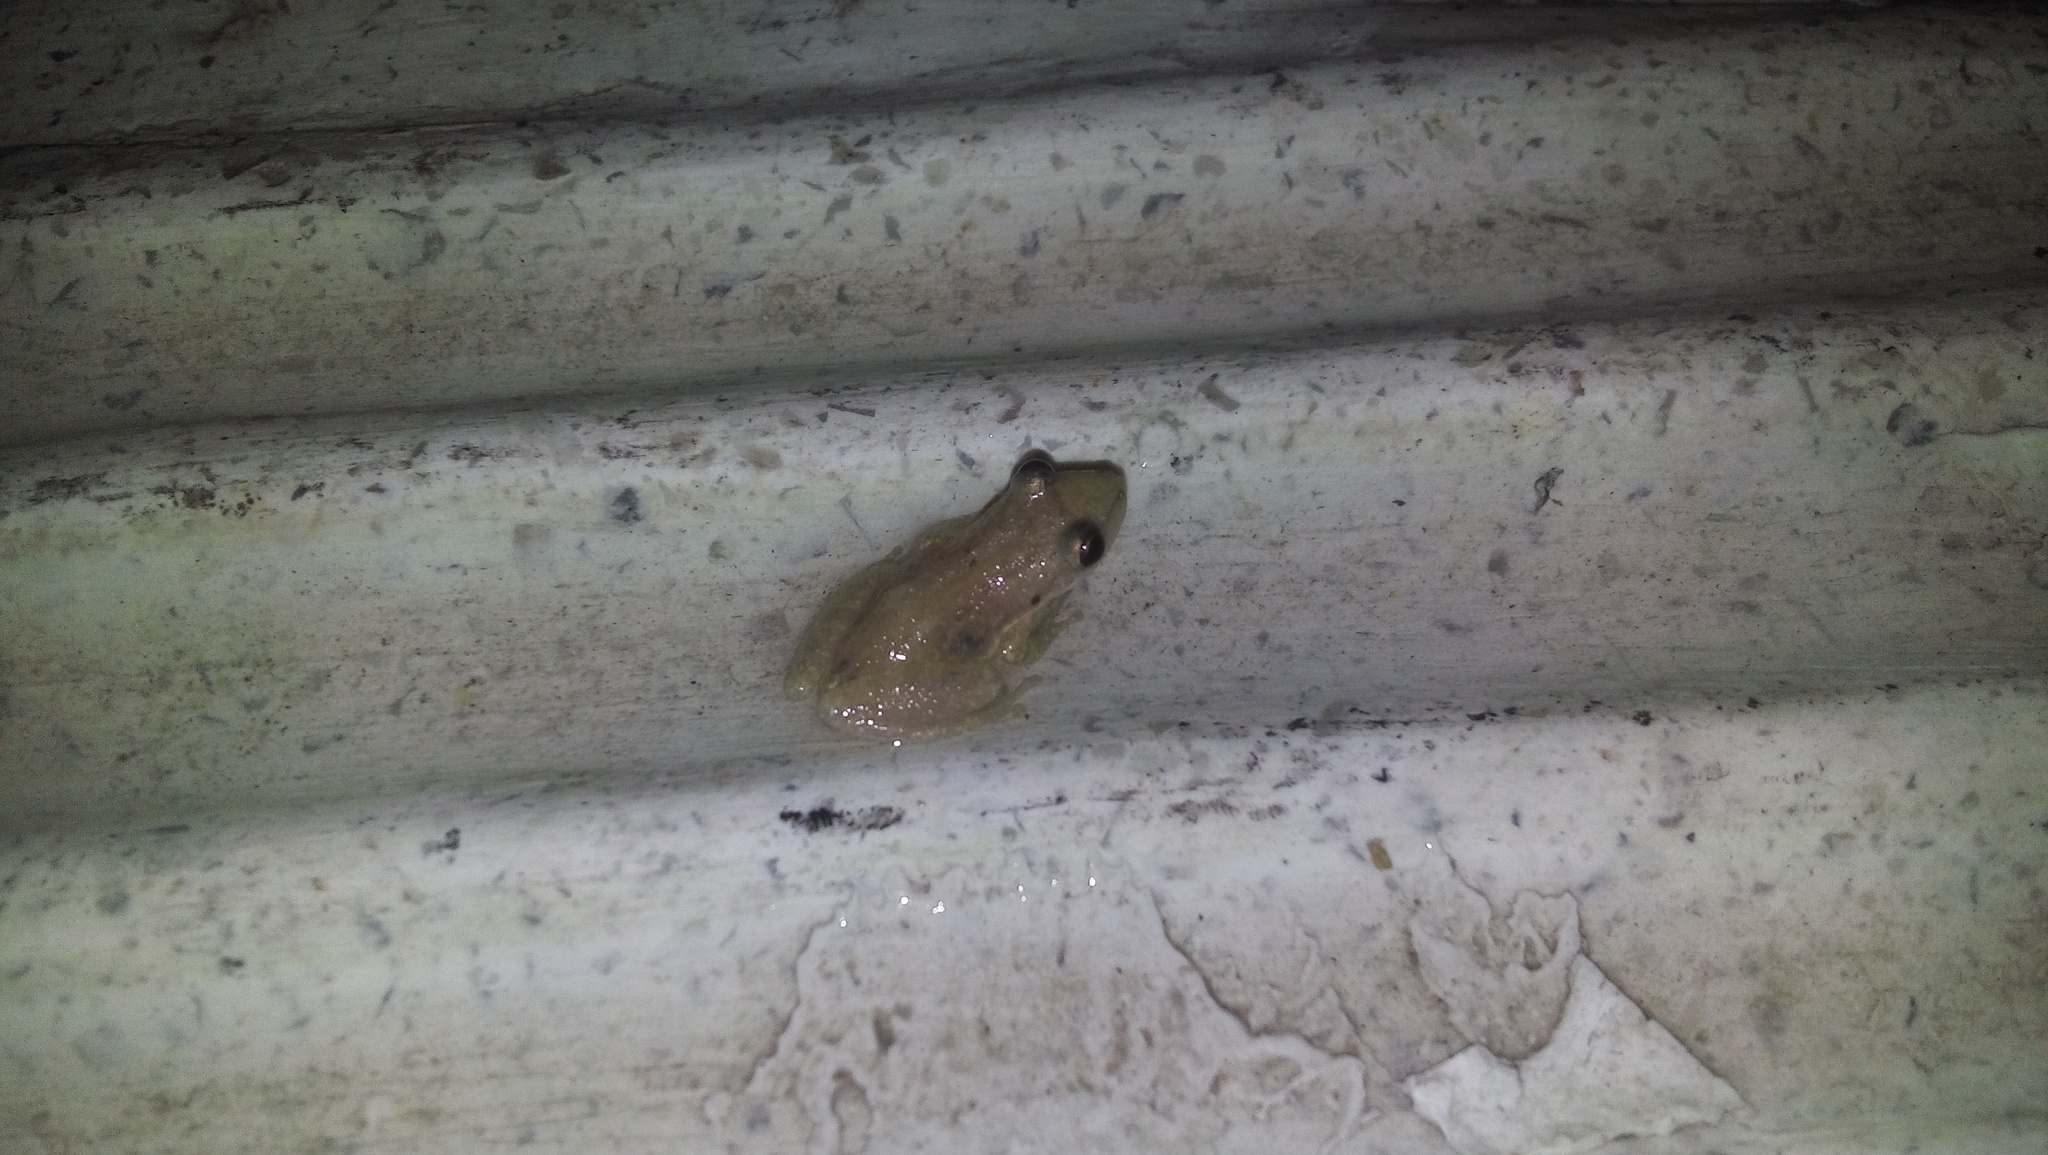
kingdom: Animalia
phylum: Chordata
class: Amphibia
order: Anura
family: Hylidae
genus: Scinax
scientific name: Scinax staufferi
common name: Stauffer's long-nosed treefrog
